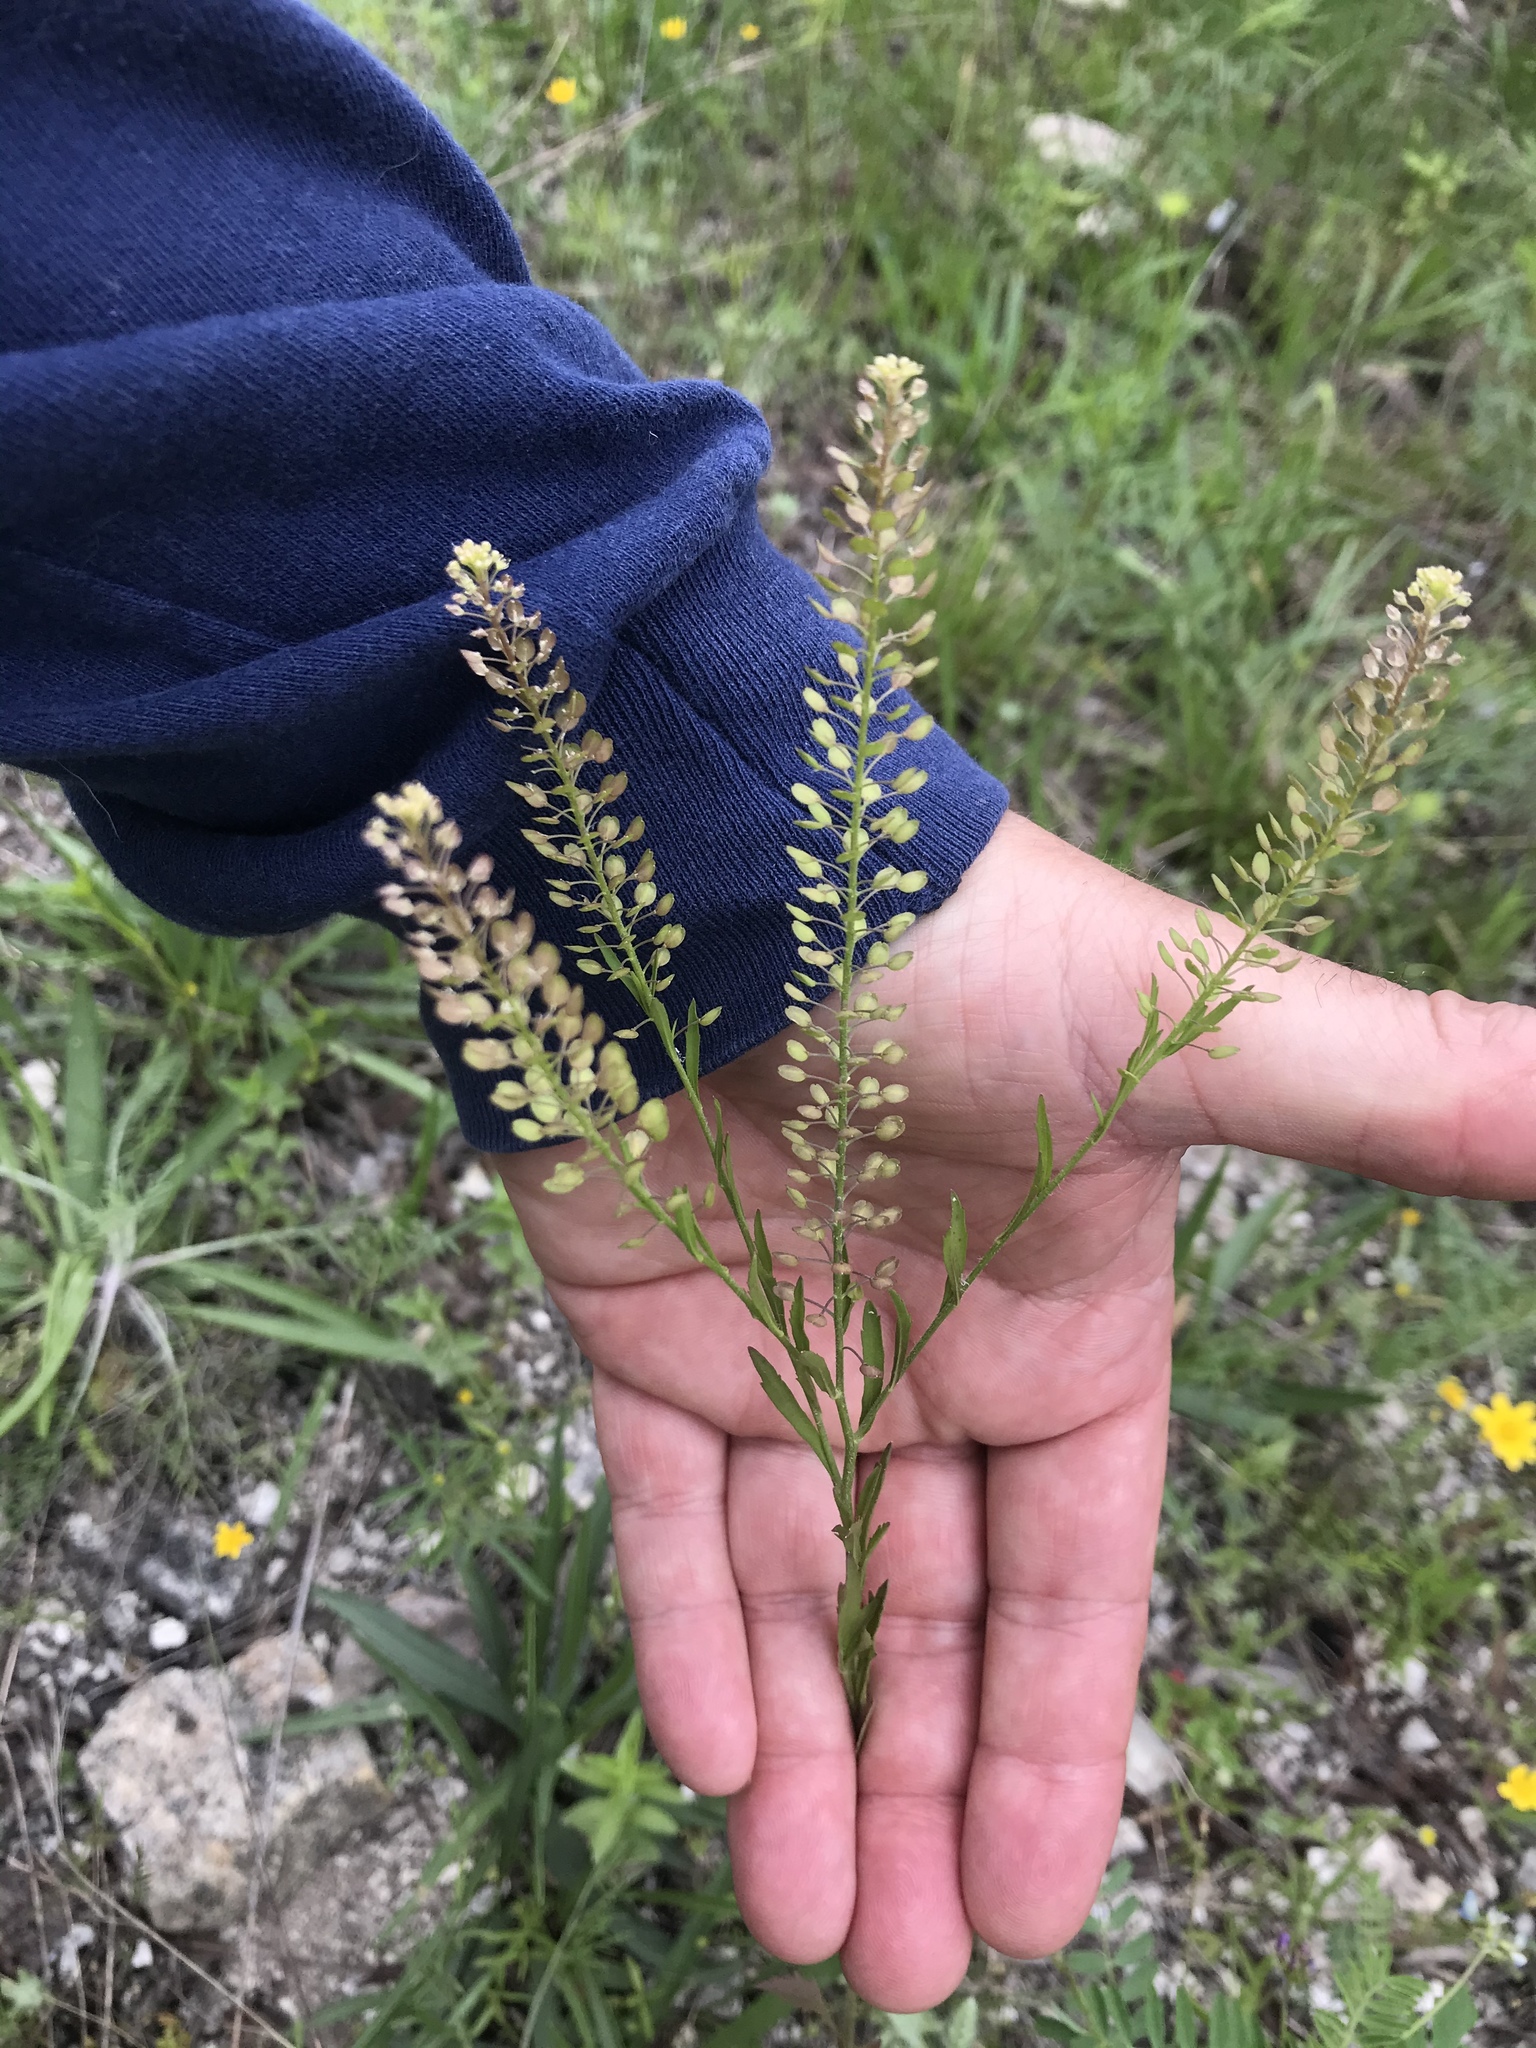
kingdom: Plantae
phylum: Tracheophyta
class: Magnoliopsida
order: Brassicales
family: Brassicaceae
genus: Lepidium
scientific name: Lepidium densiflorum
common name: Miner's pepperwort
